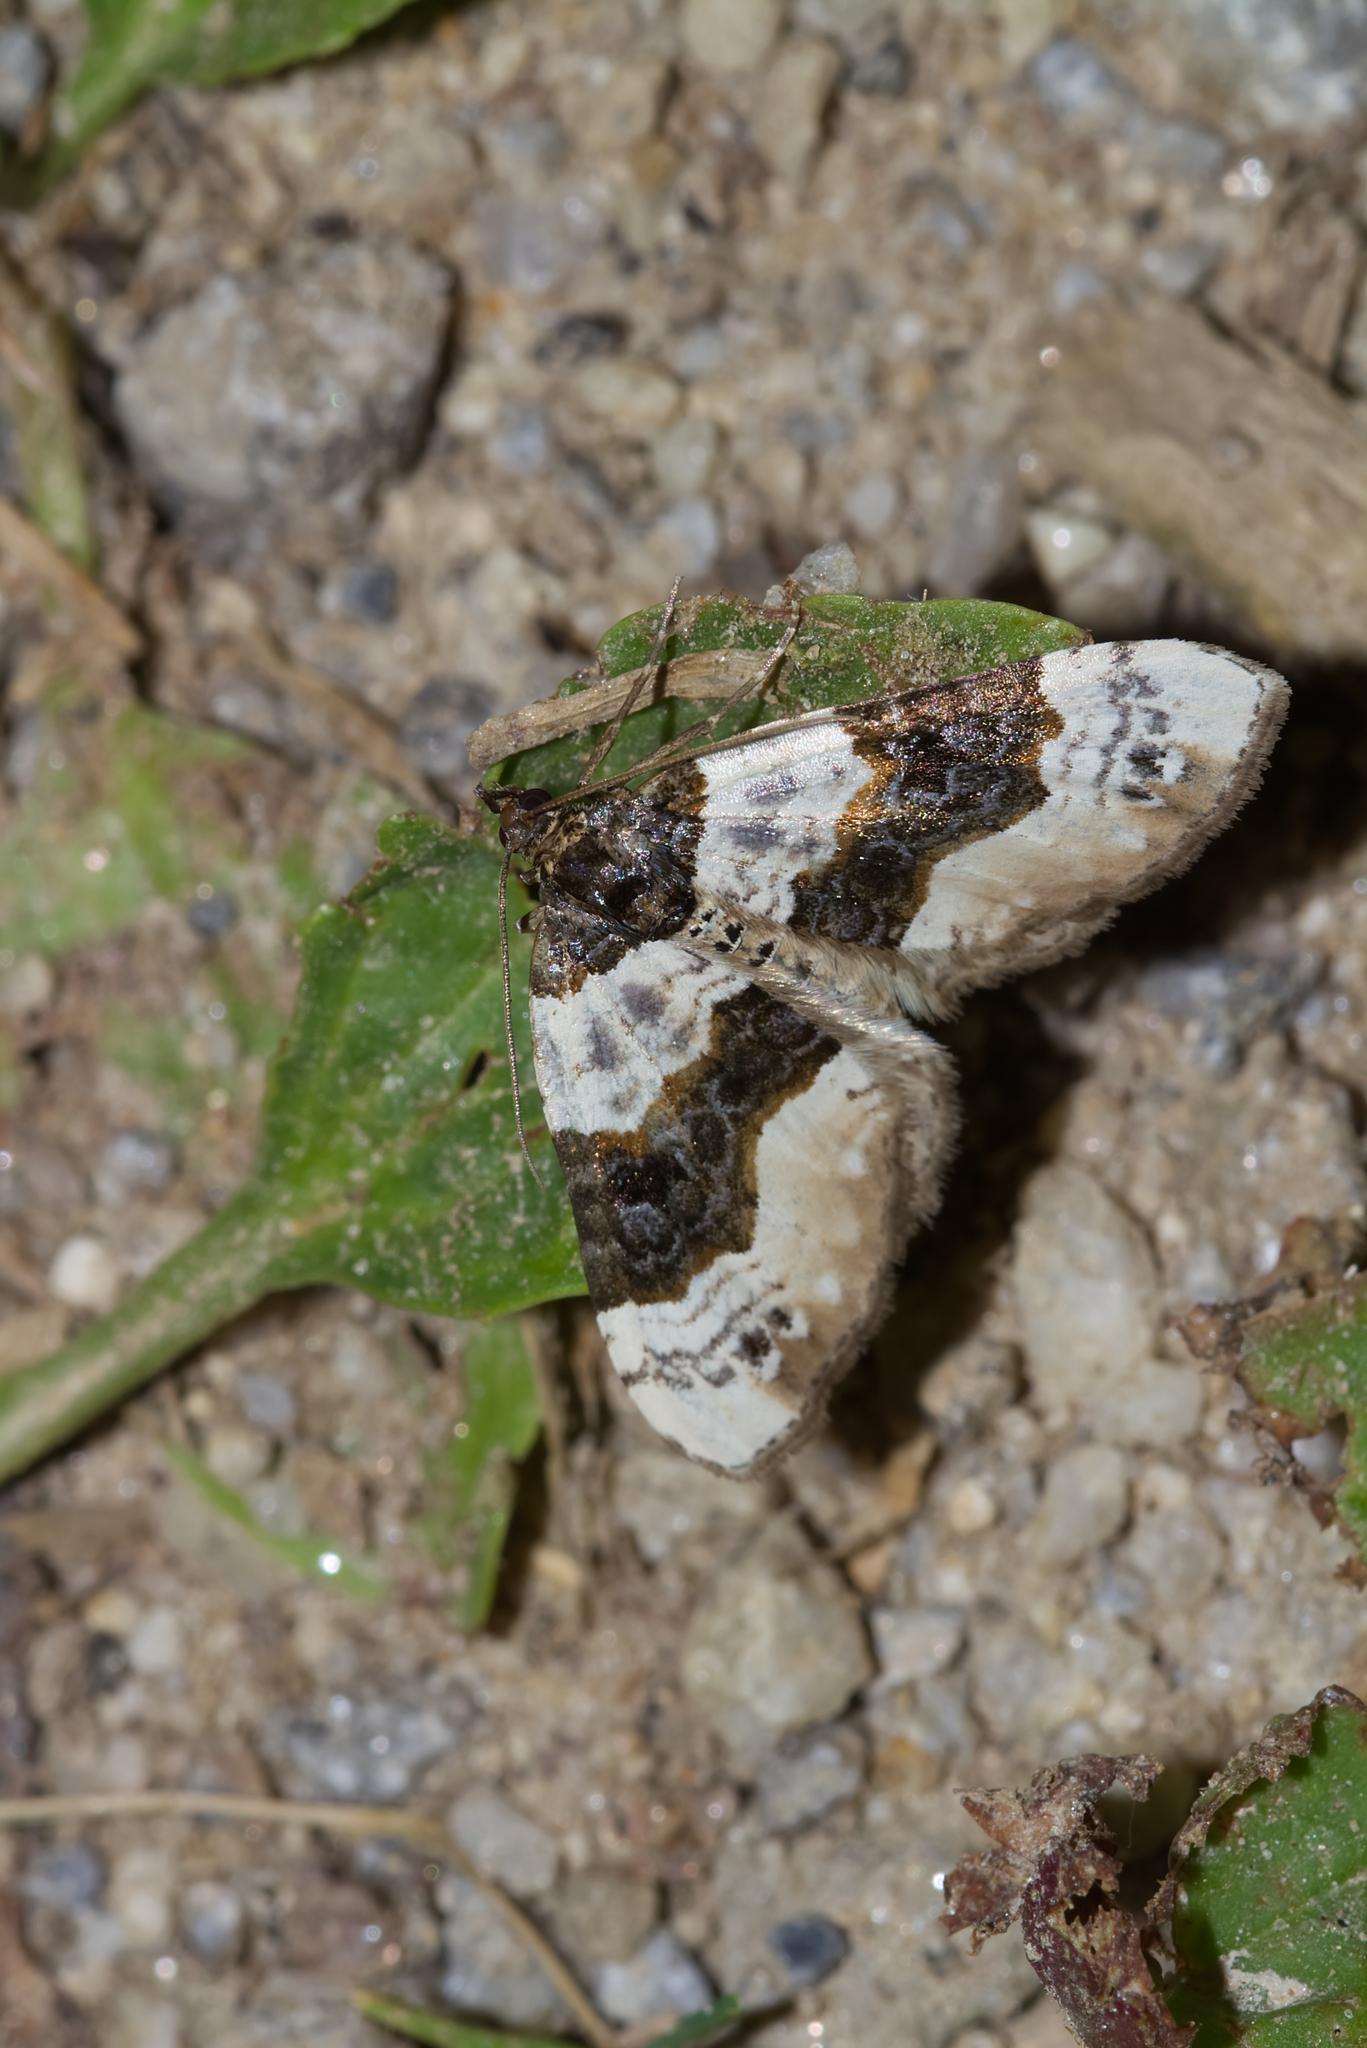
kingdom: Animalia
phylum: Arthropoda
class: Insecta
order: Lepidoptera
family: Geometridae
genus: Cosmorhoe
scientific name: Cosmorhoe ocellata
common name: Purple bar
